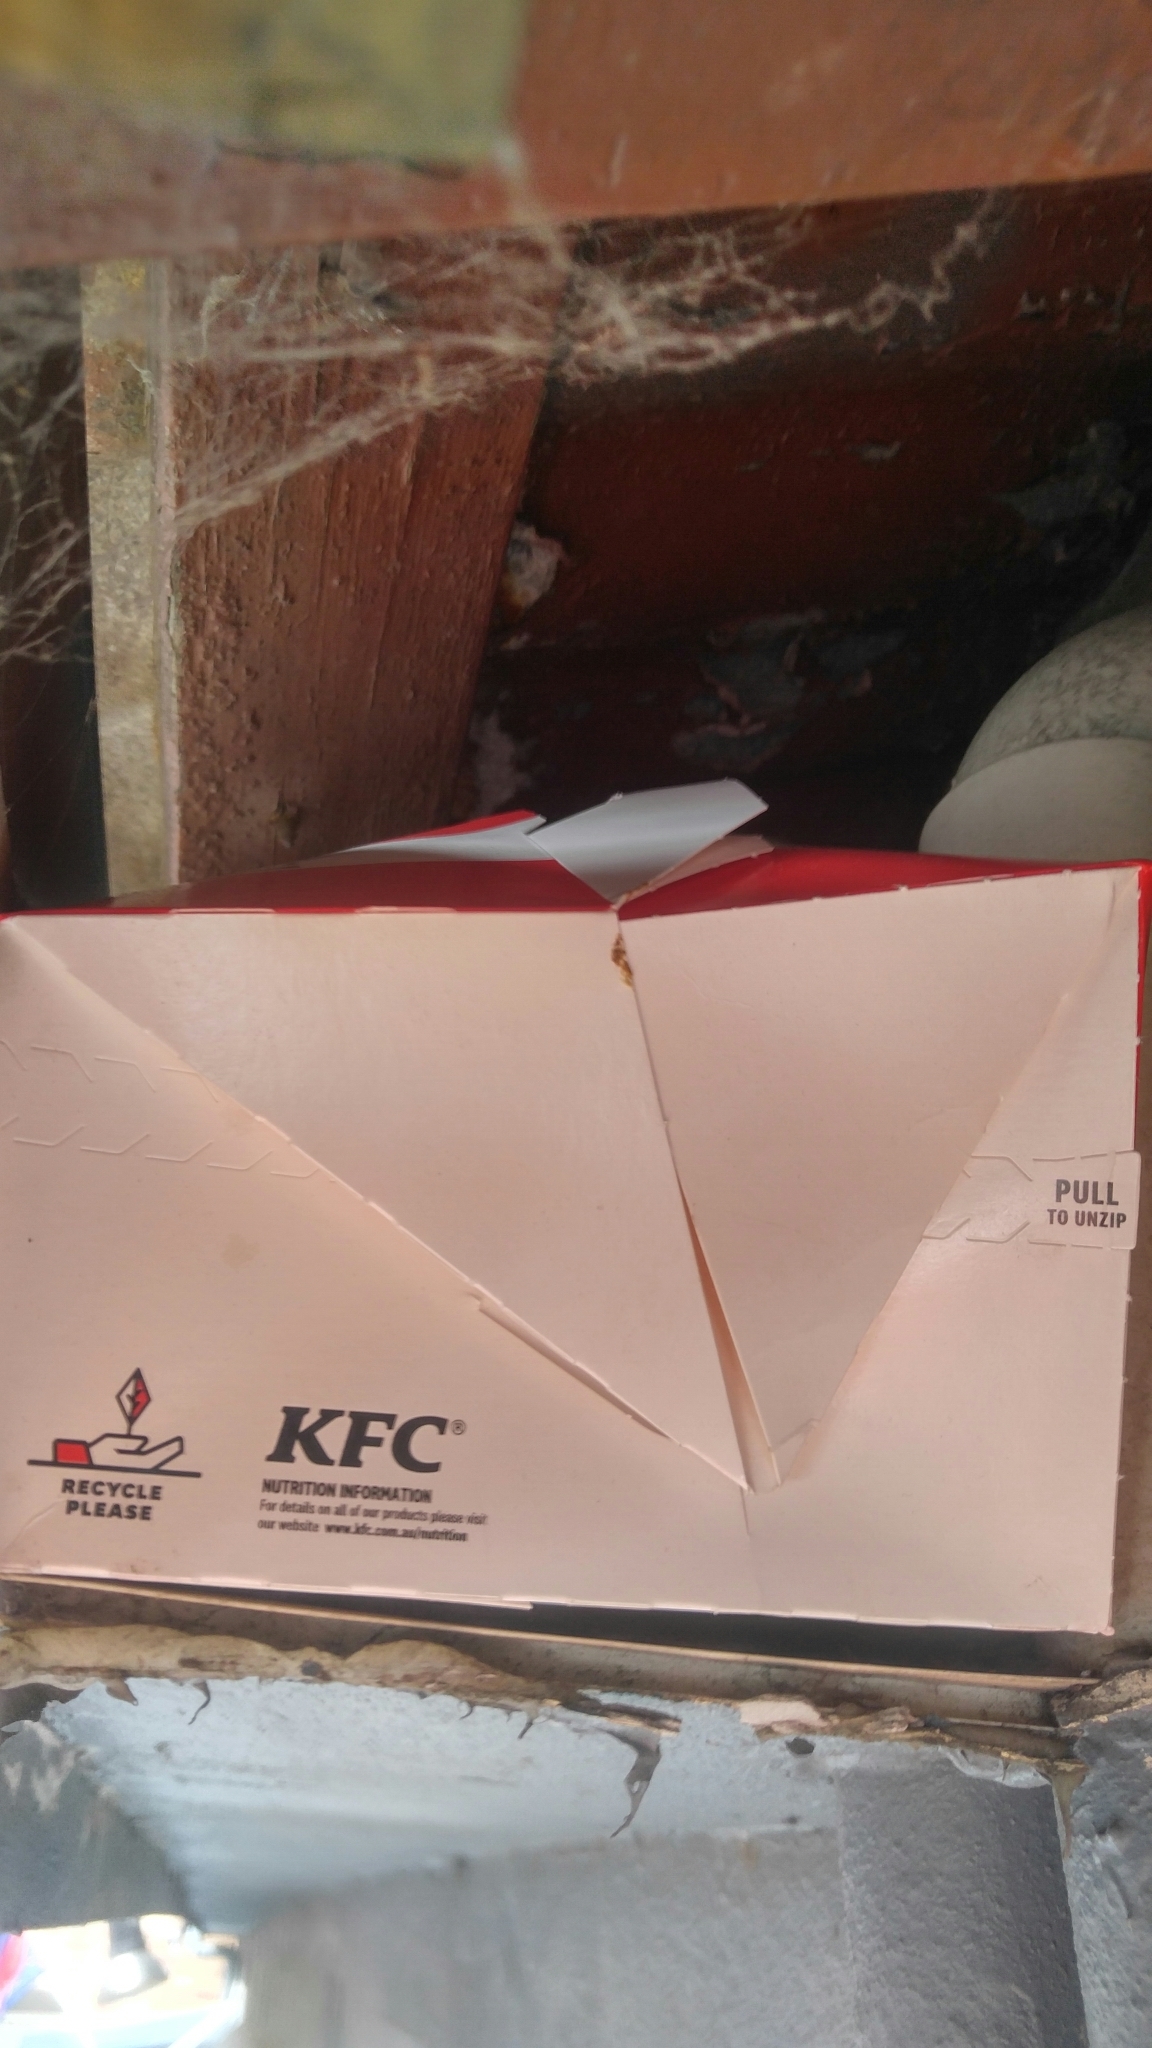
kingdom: Animalia
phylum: Chordata
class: Aves
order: Passeriformes
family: Sturnidae
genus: Acridotheres
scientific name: Acridotheres tristis
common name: Common myna
